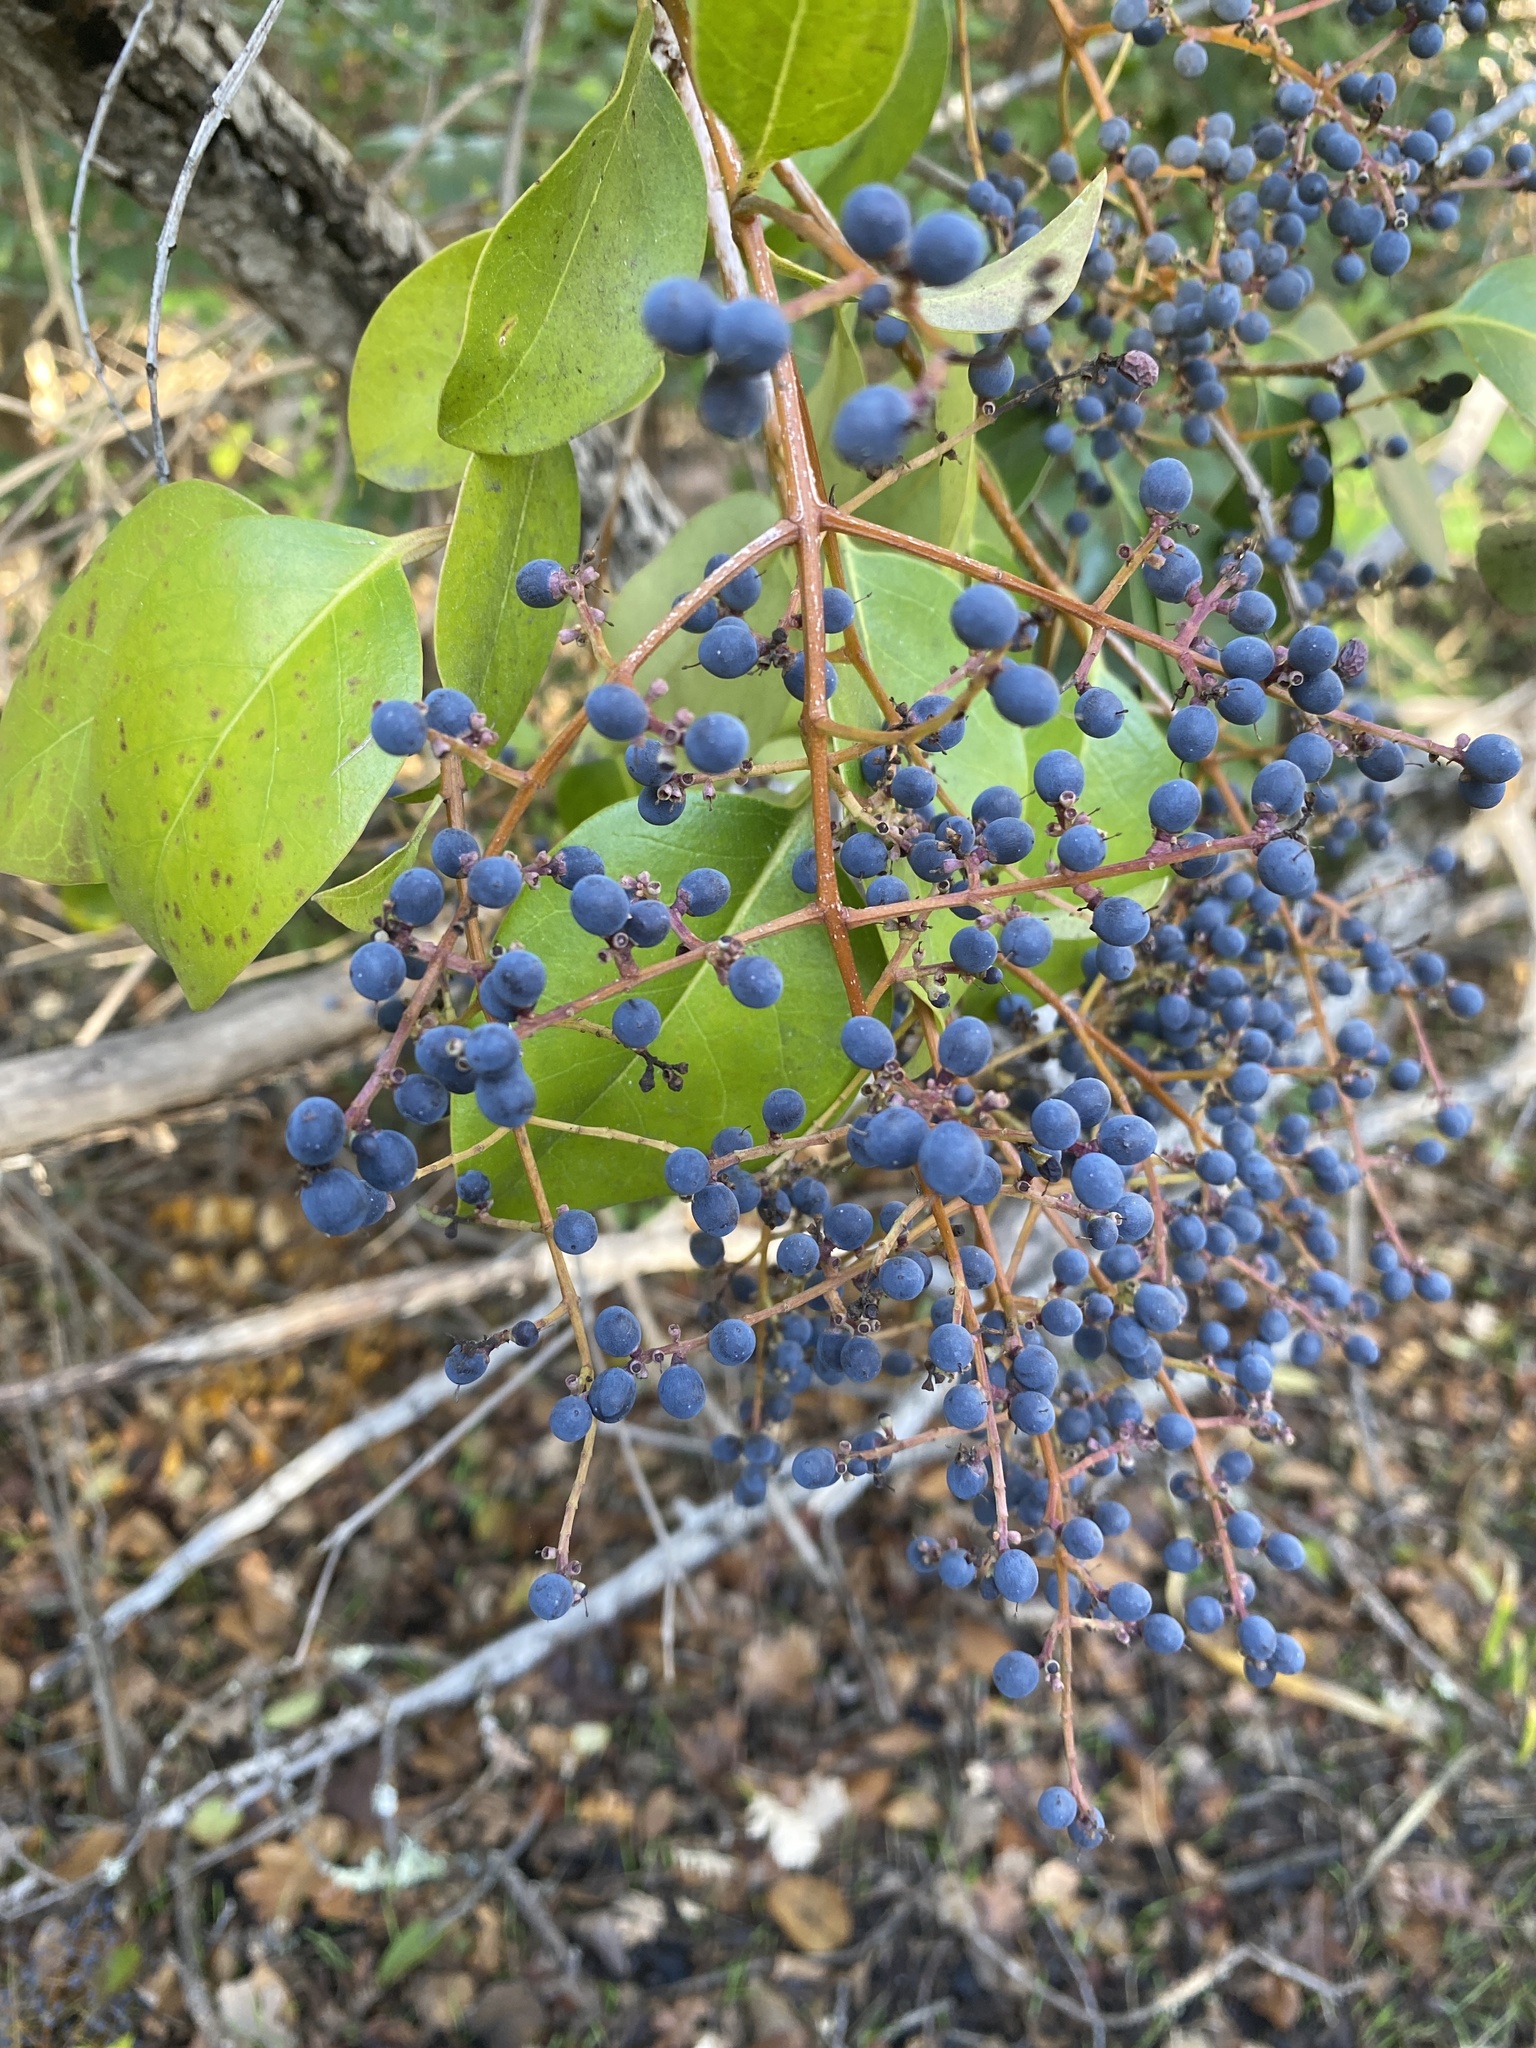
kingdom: Plantae
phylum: Tracheophyta
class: Magnoliopsida
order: Lamiales
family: Oleaceae
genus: Ligustrum
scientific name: Ligustrum lucidum
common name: Glossy privet
